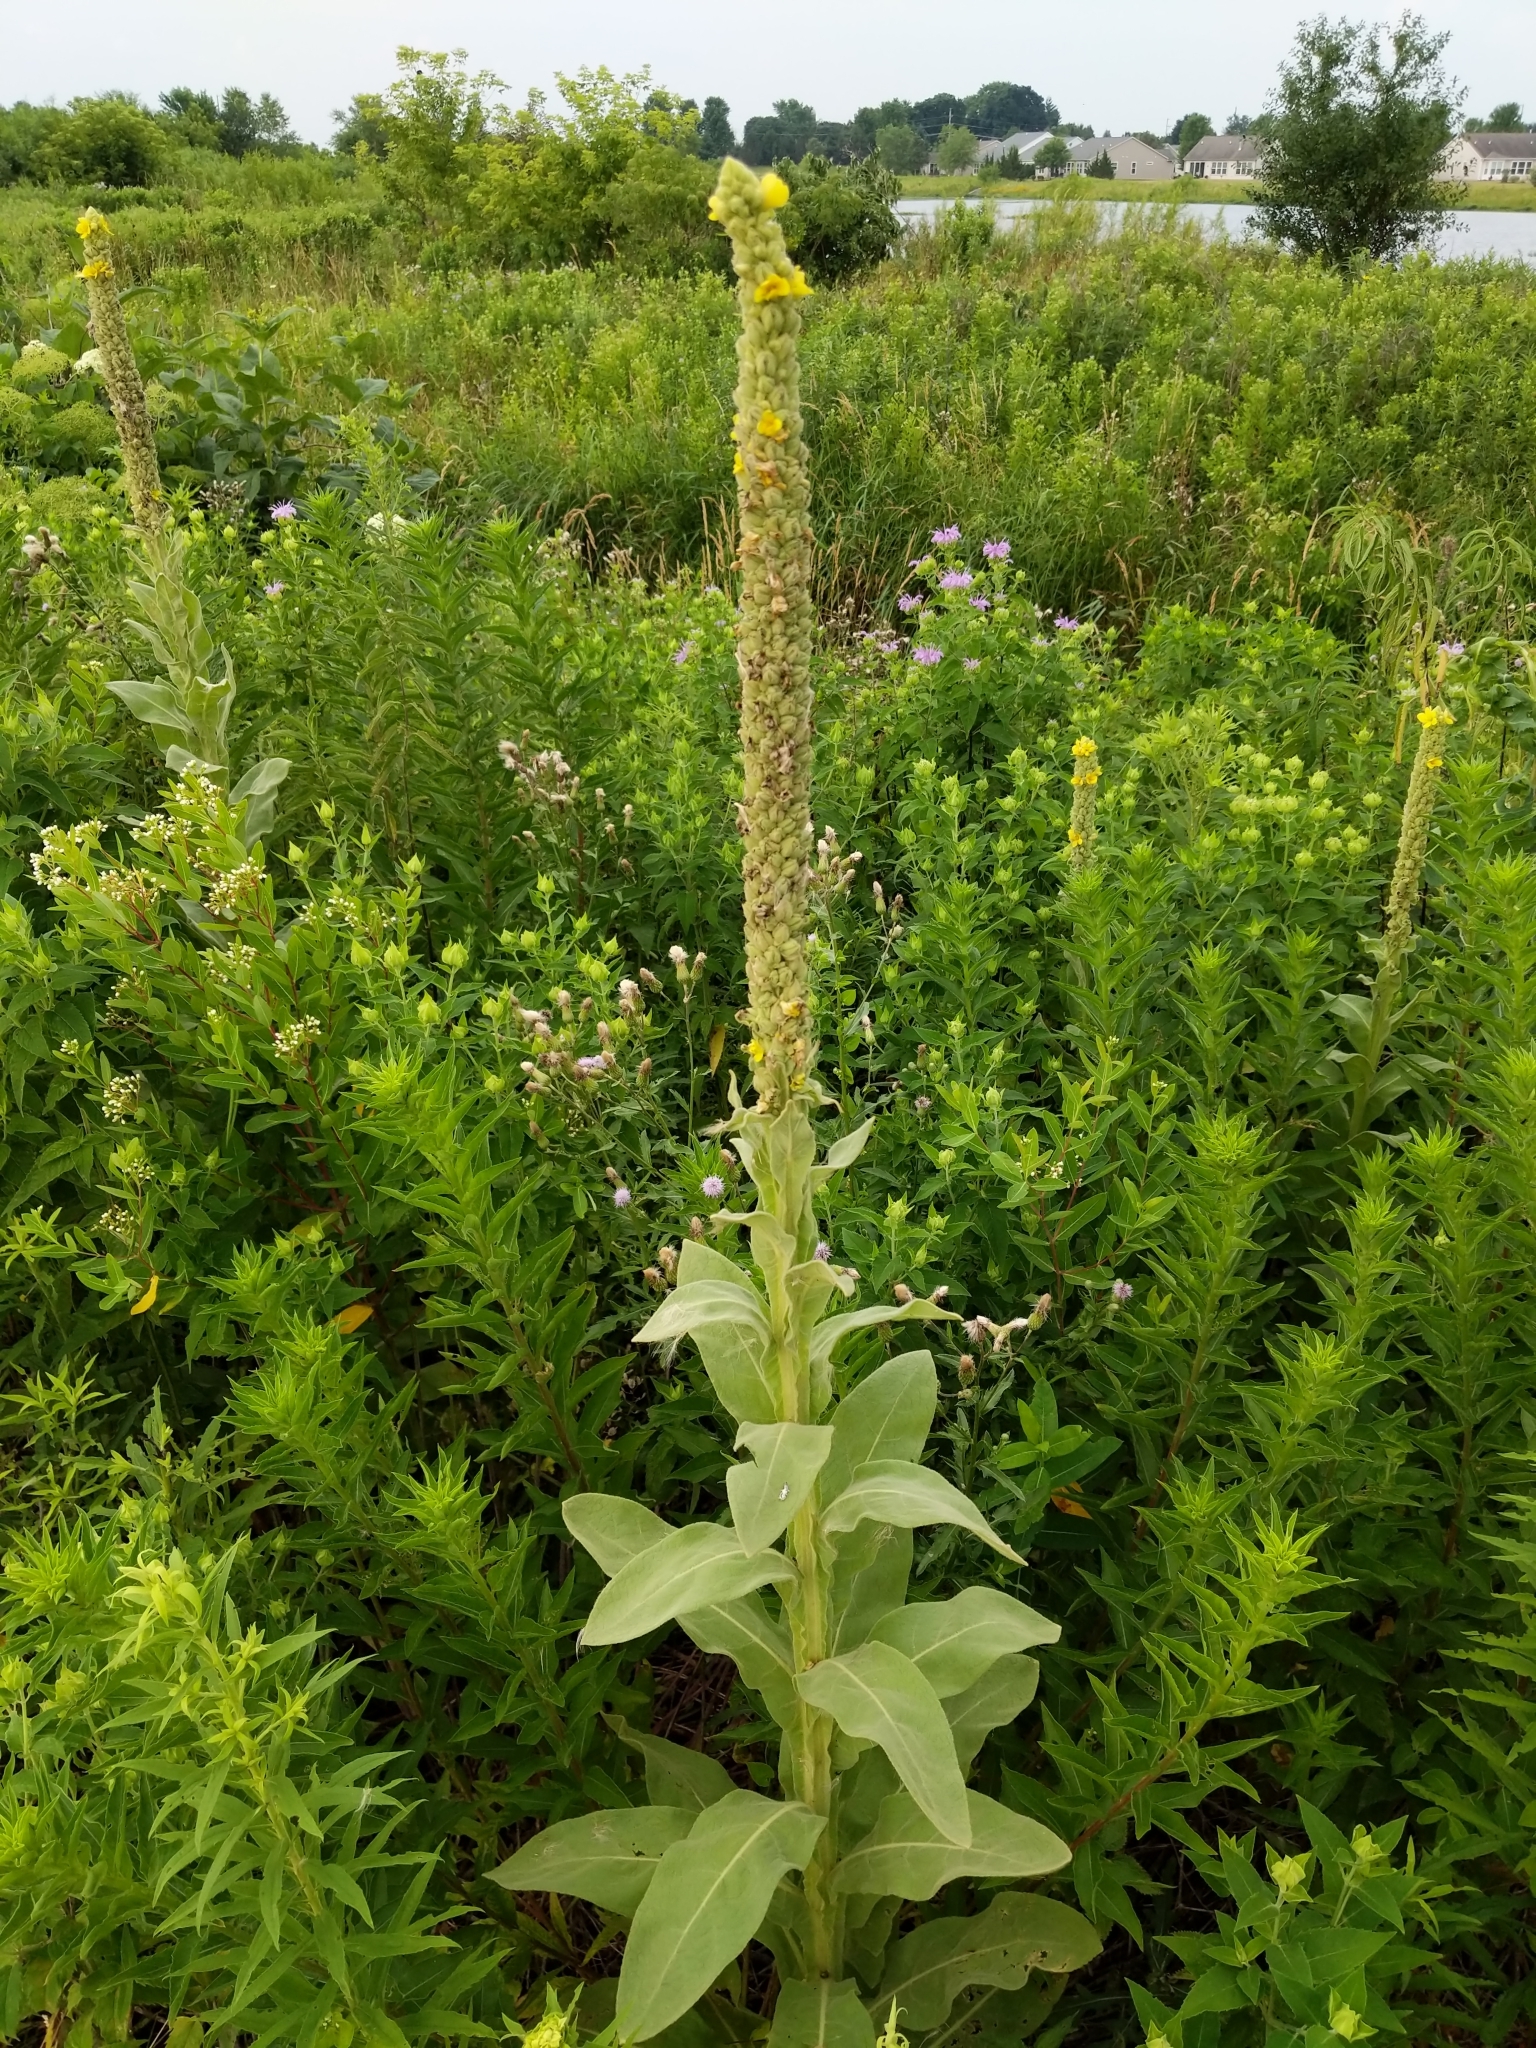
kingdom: Plantae
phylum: Tracheophyta
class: Magnoliopsida
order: Lamiales
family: Scrophulariaceae
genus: Verbascum
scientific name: Verbascum thapsus
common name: Common mullein
